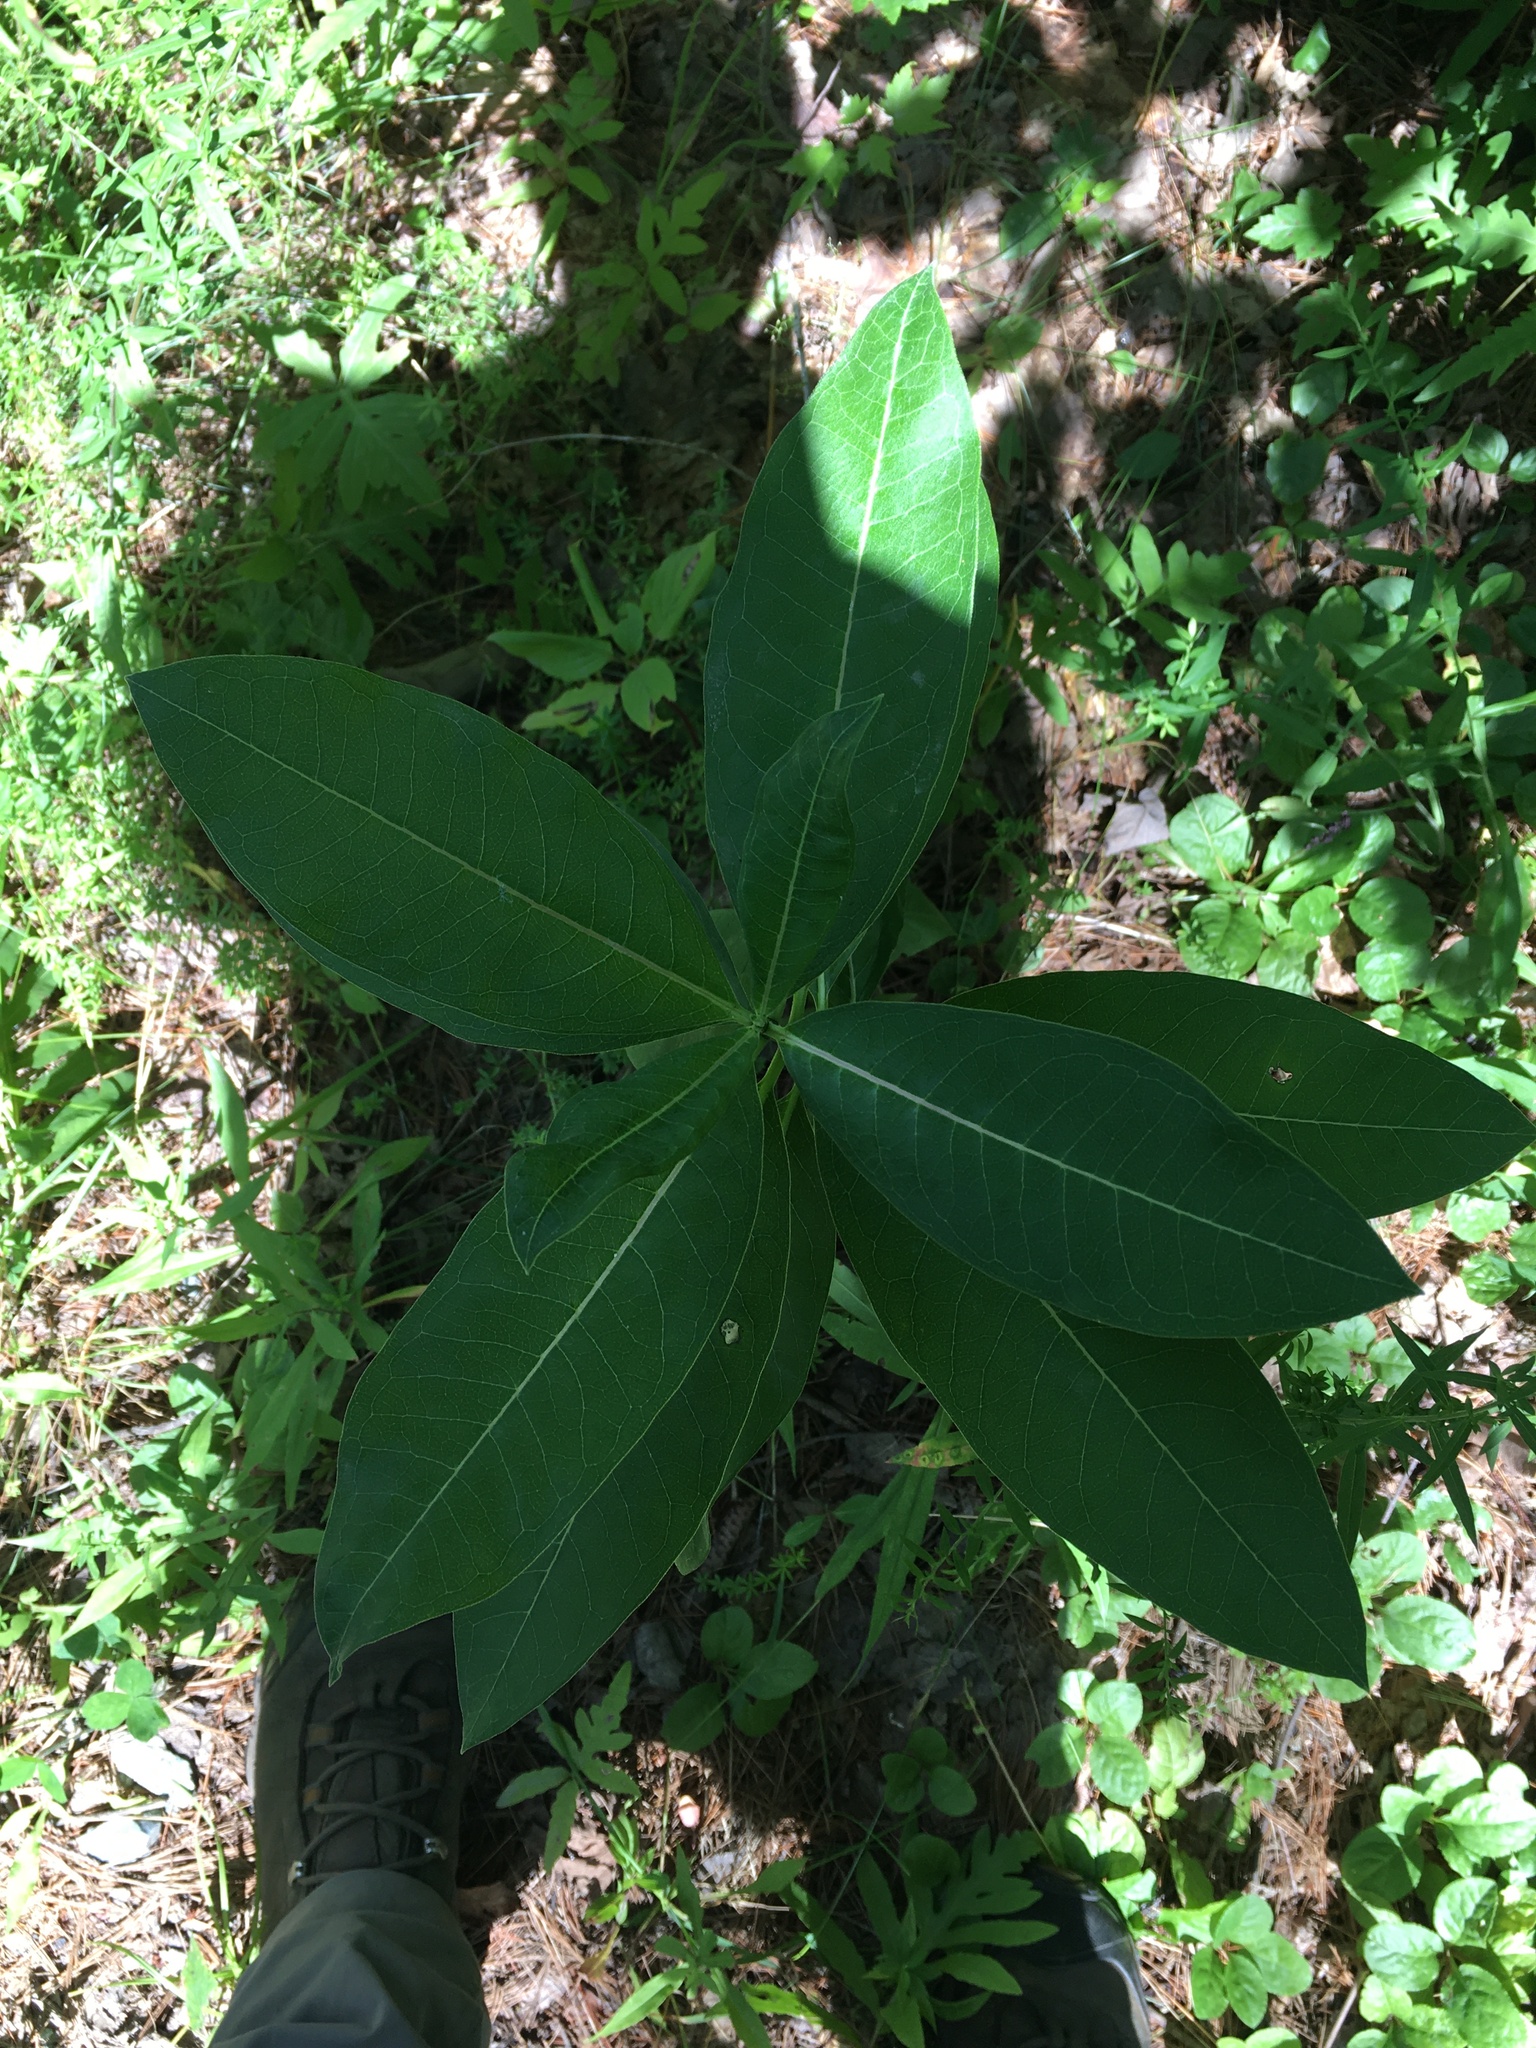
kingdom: Plantae
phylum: Tracheophyta
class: Magnoliopsida
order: Gentianales
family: Apocynaceae
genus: Asclepias
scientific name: Asclepias syriaca
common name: Common milkweed
